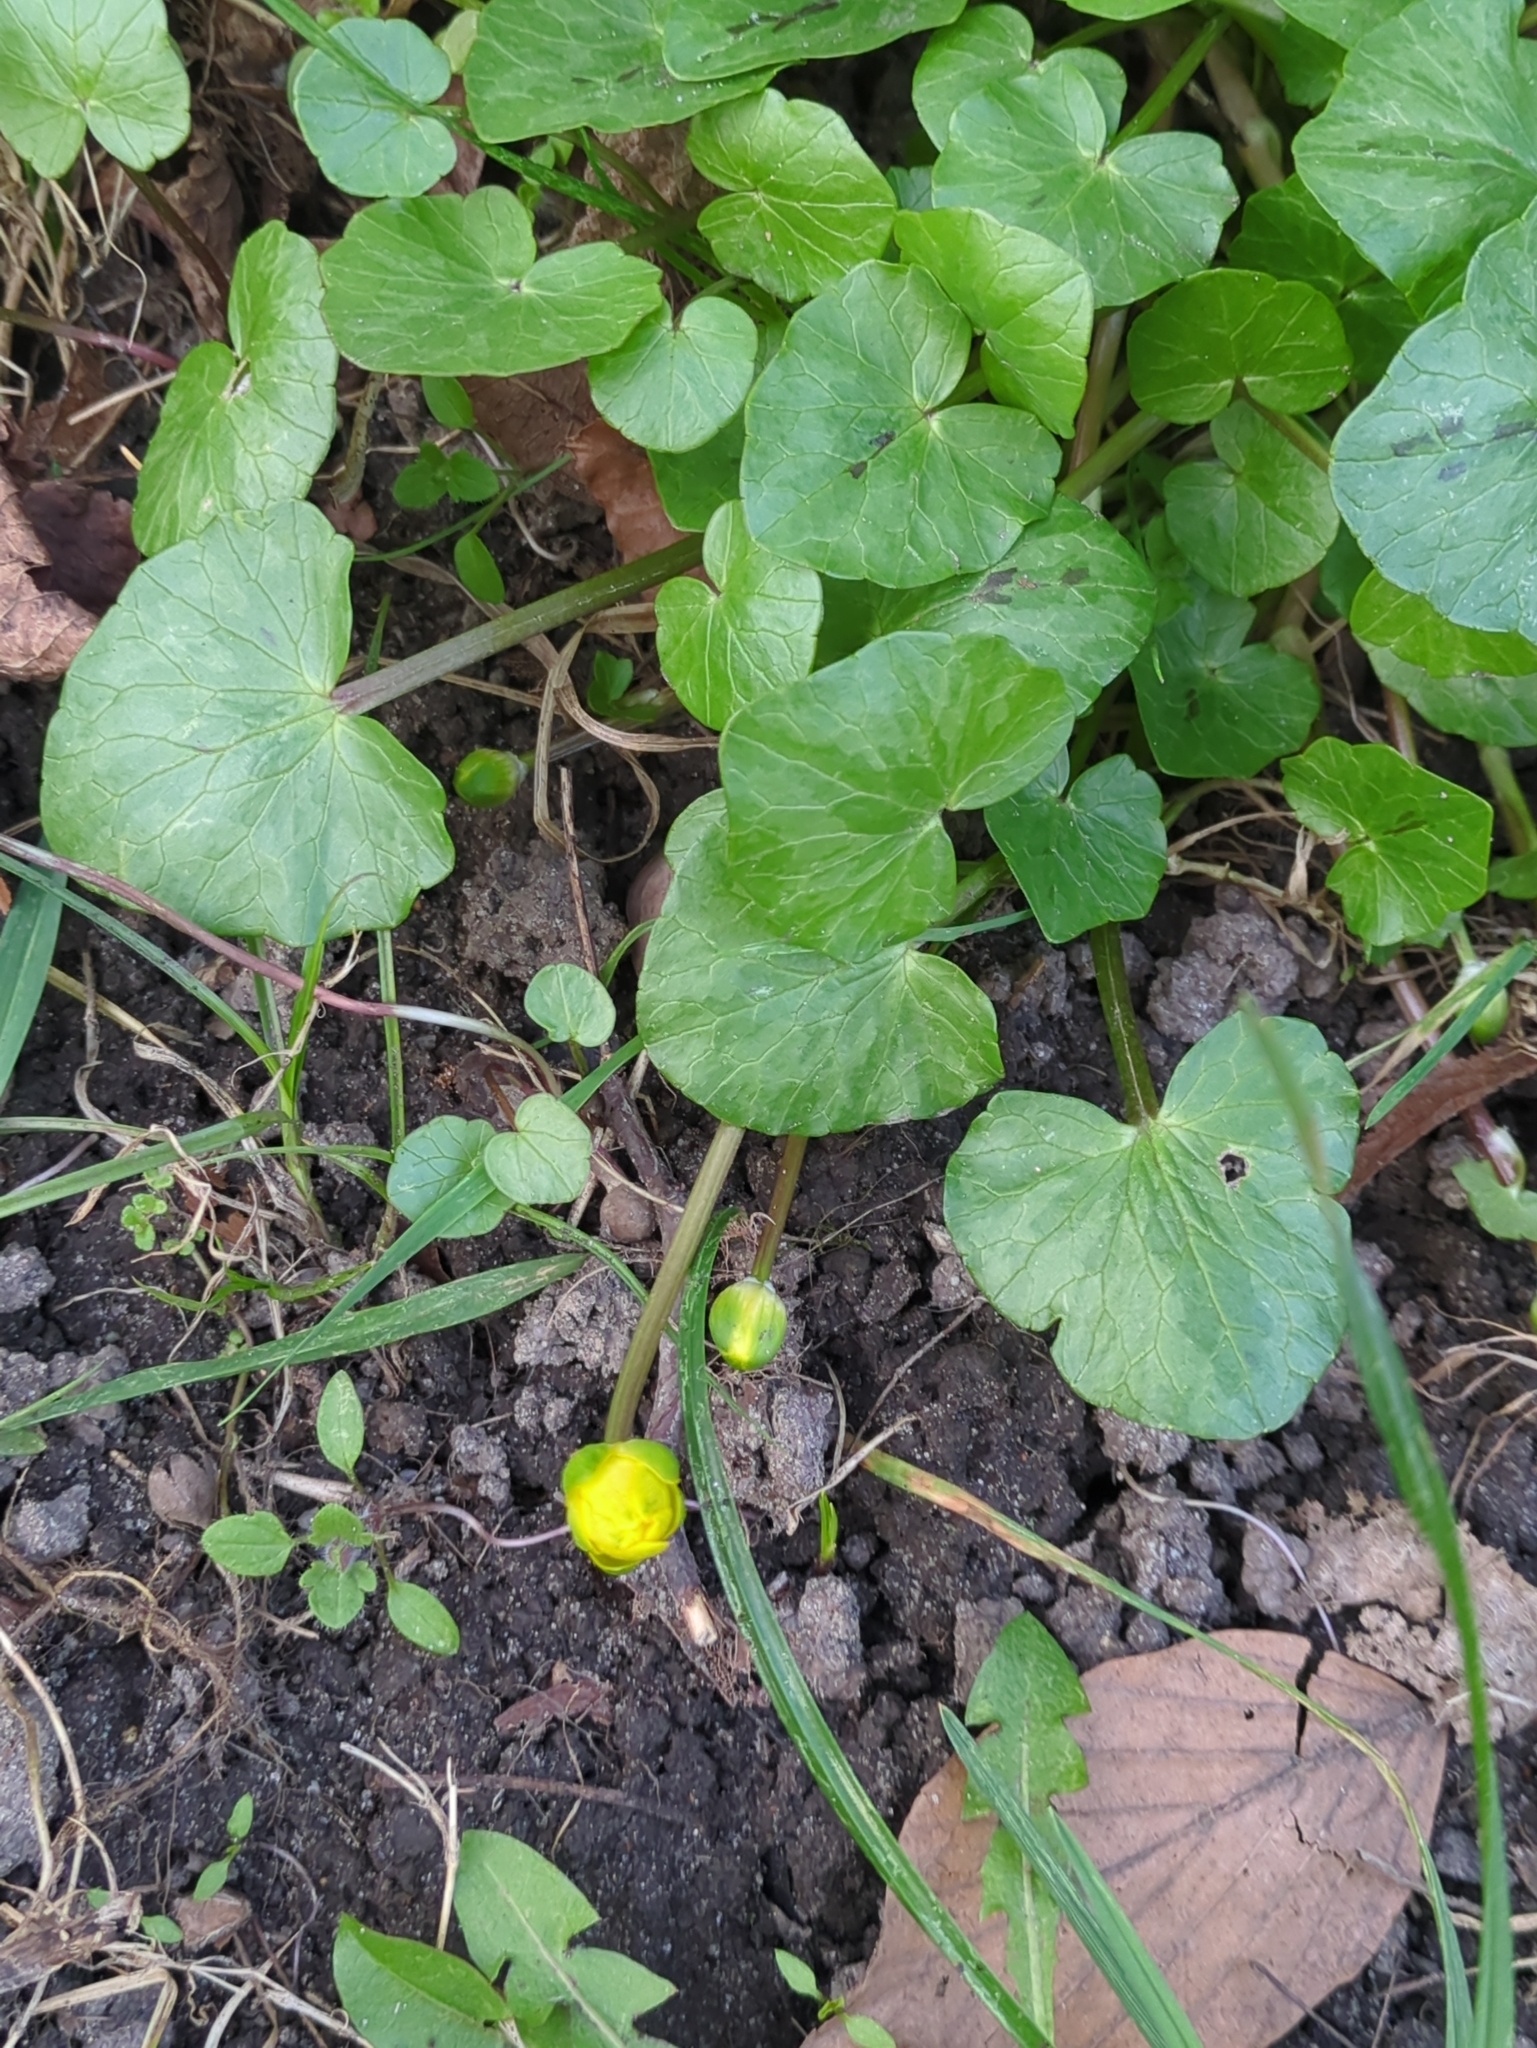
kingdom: Plantae
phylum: Tracheophyta
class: Magnoliopsida
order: Ranunculales
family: Ranunculaceae
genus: Ficaria
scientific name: Ficaria verna
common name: Lesser celandine
